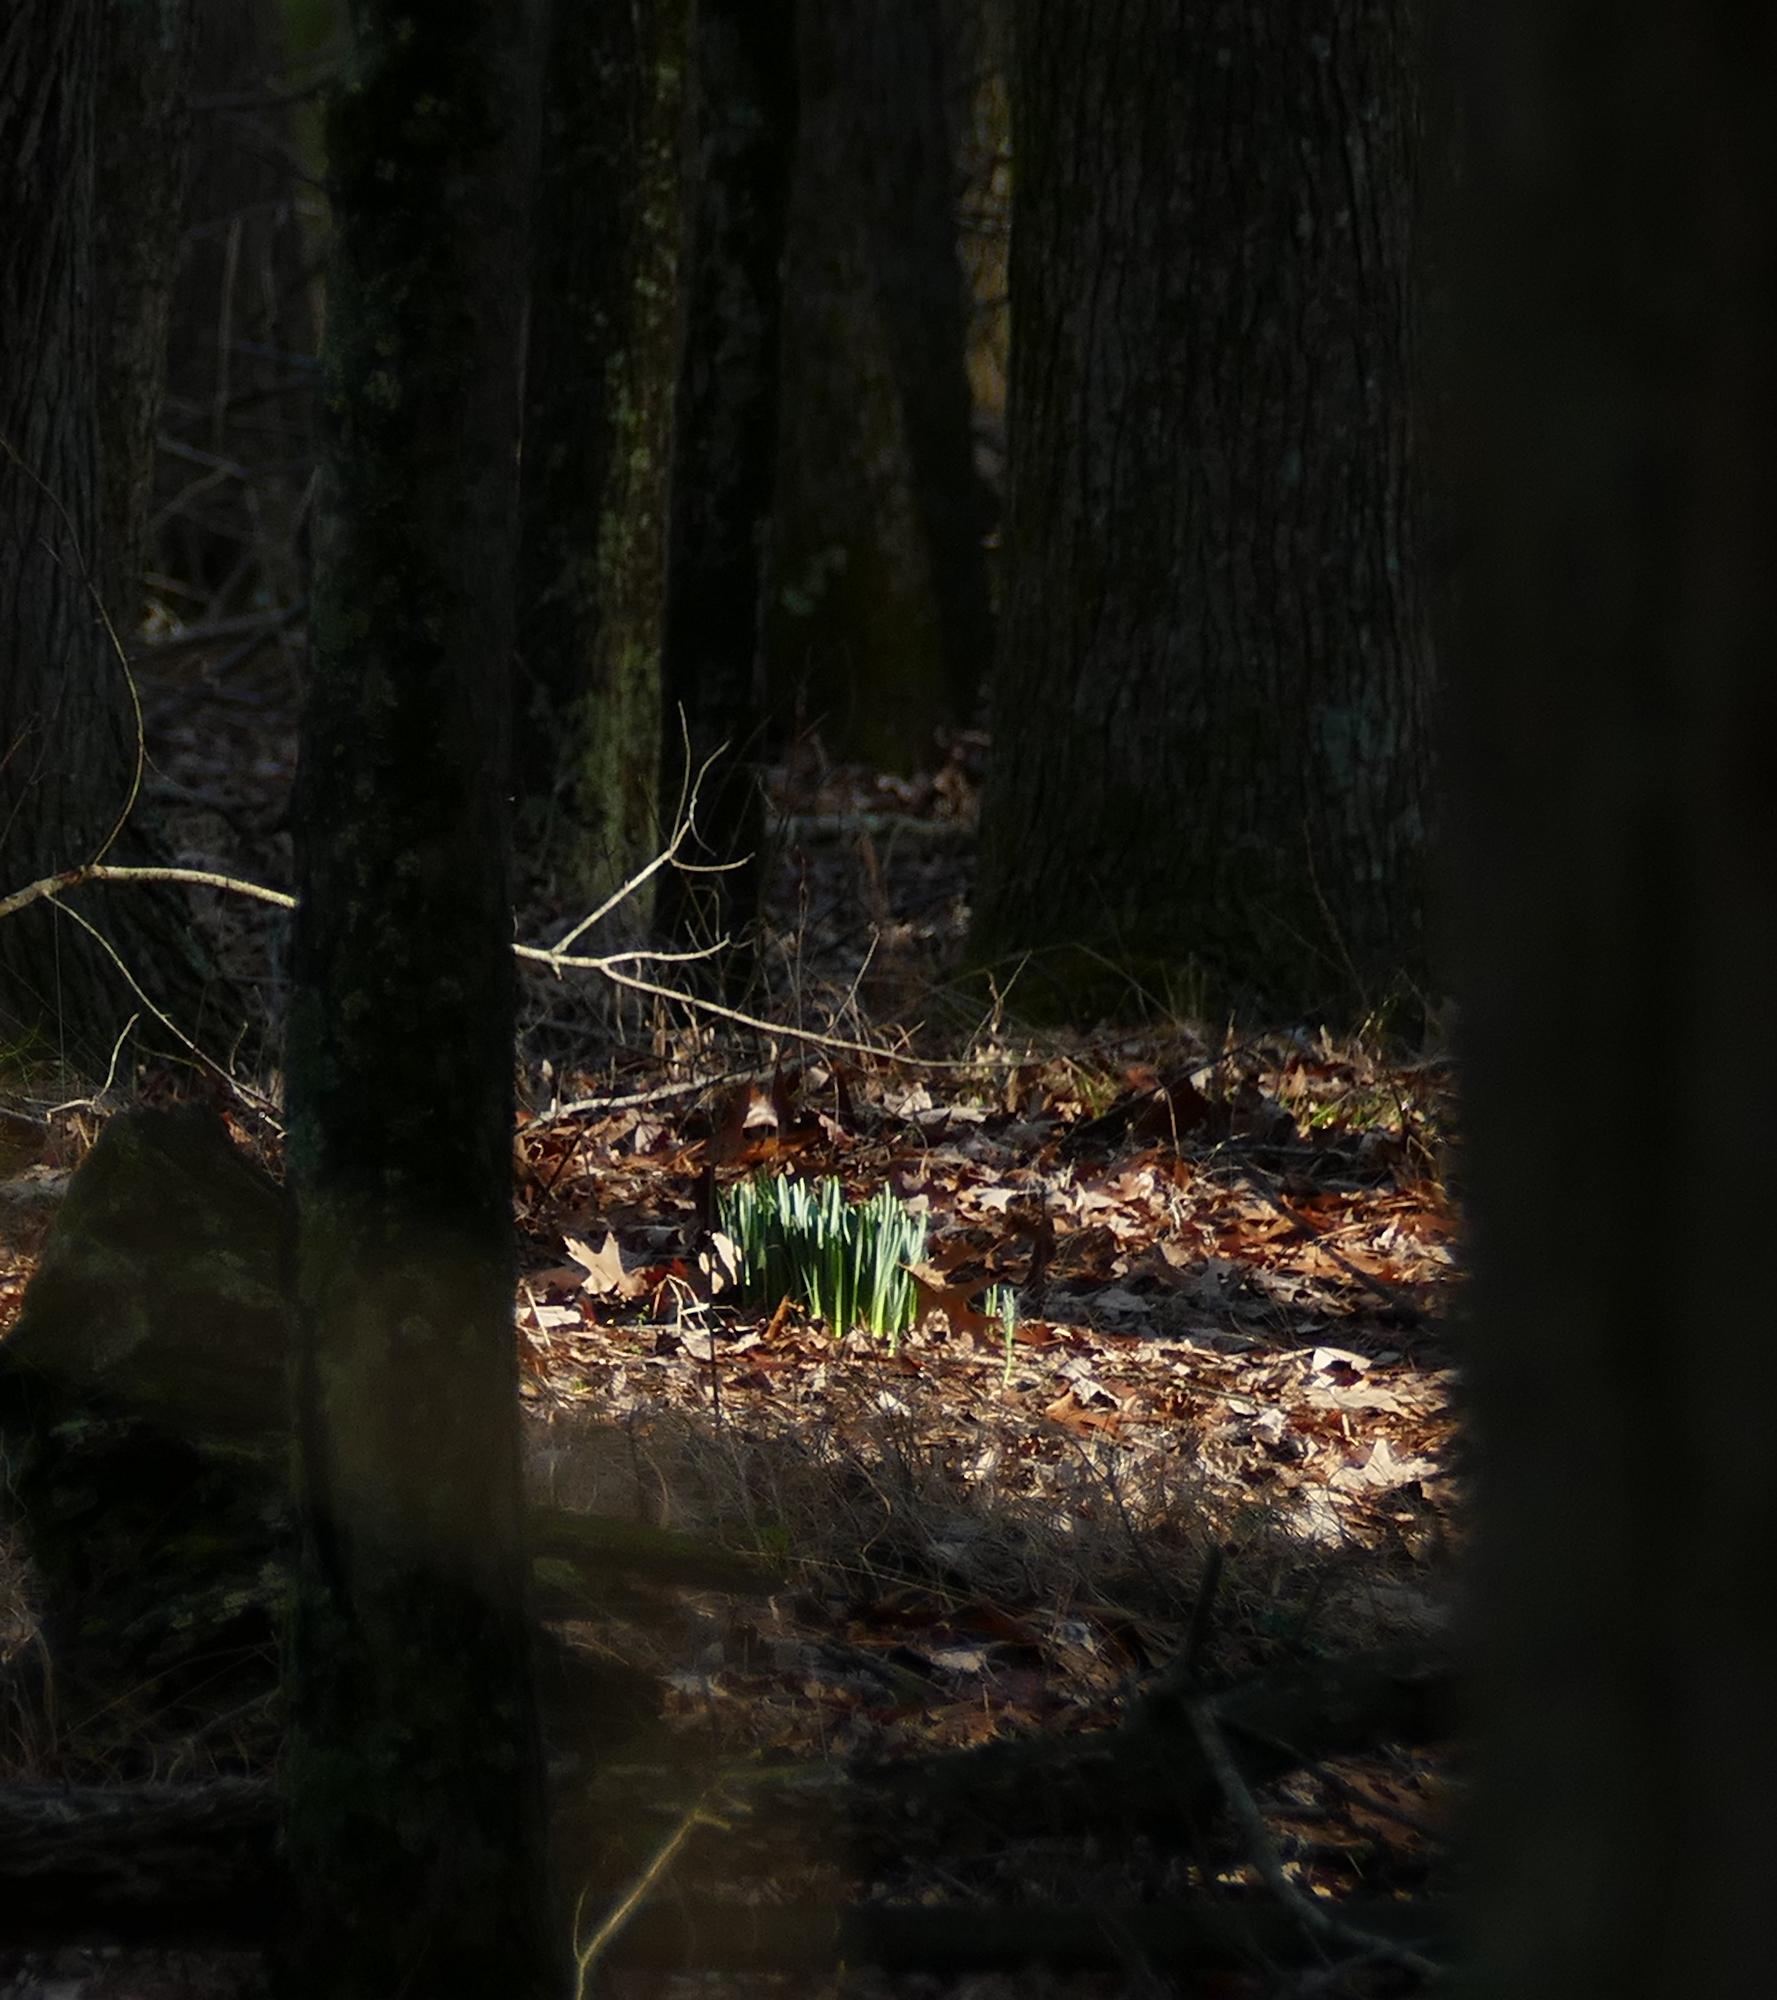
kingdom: Plantae
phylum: Tracheophyta
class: Liliopsida
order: Asparagales
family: Amaryllidaceae
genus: Narcissus
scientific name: Narcissus pseudonarcissus
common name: Daffodil
